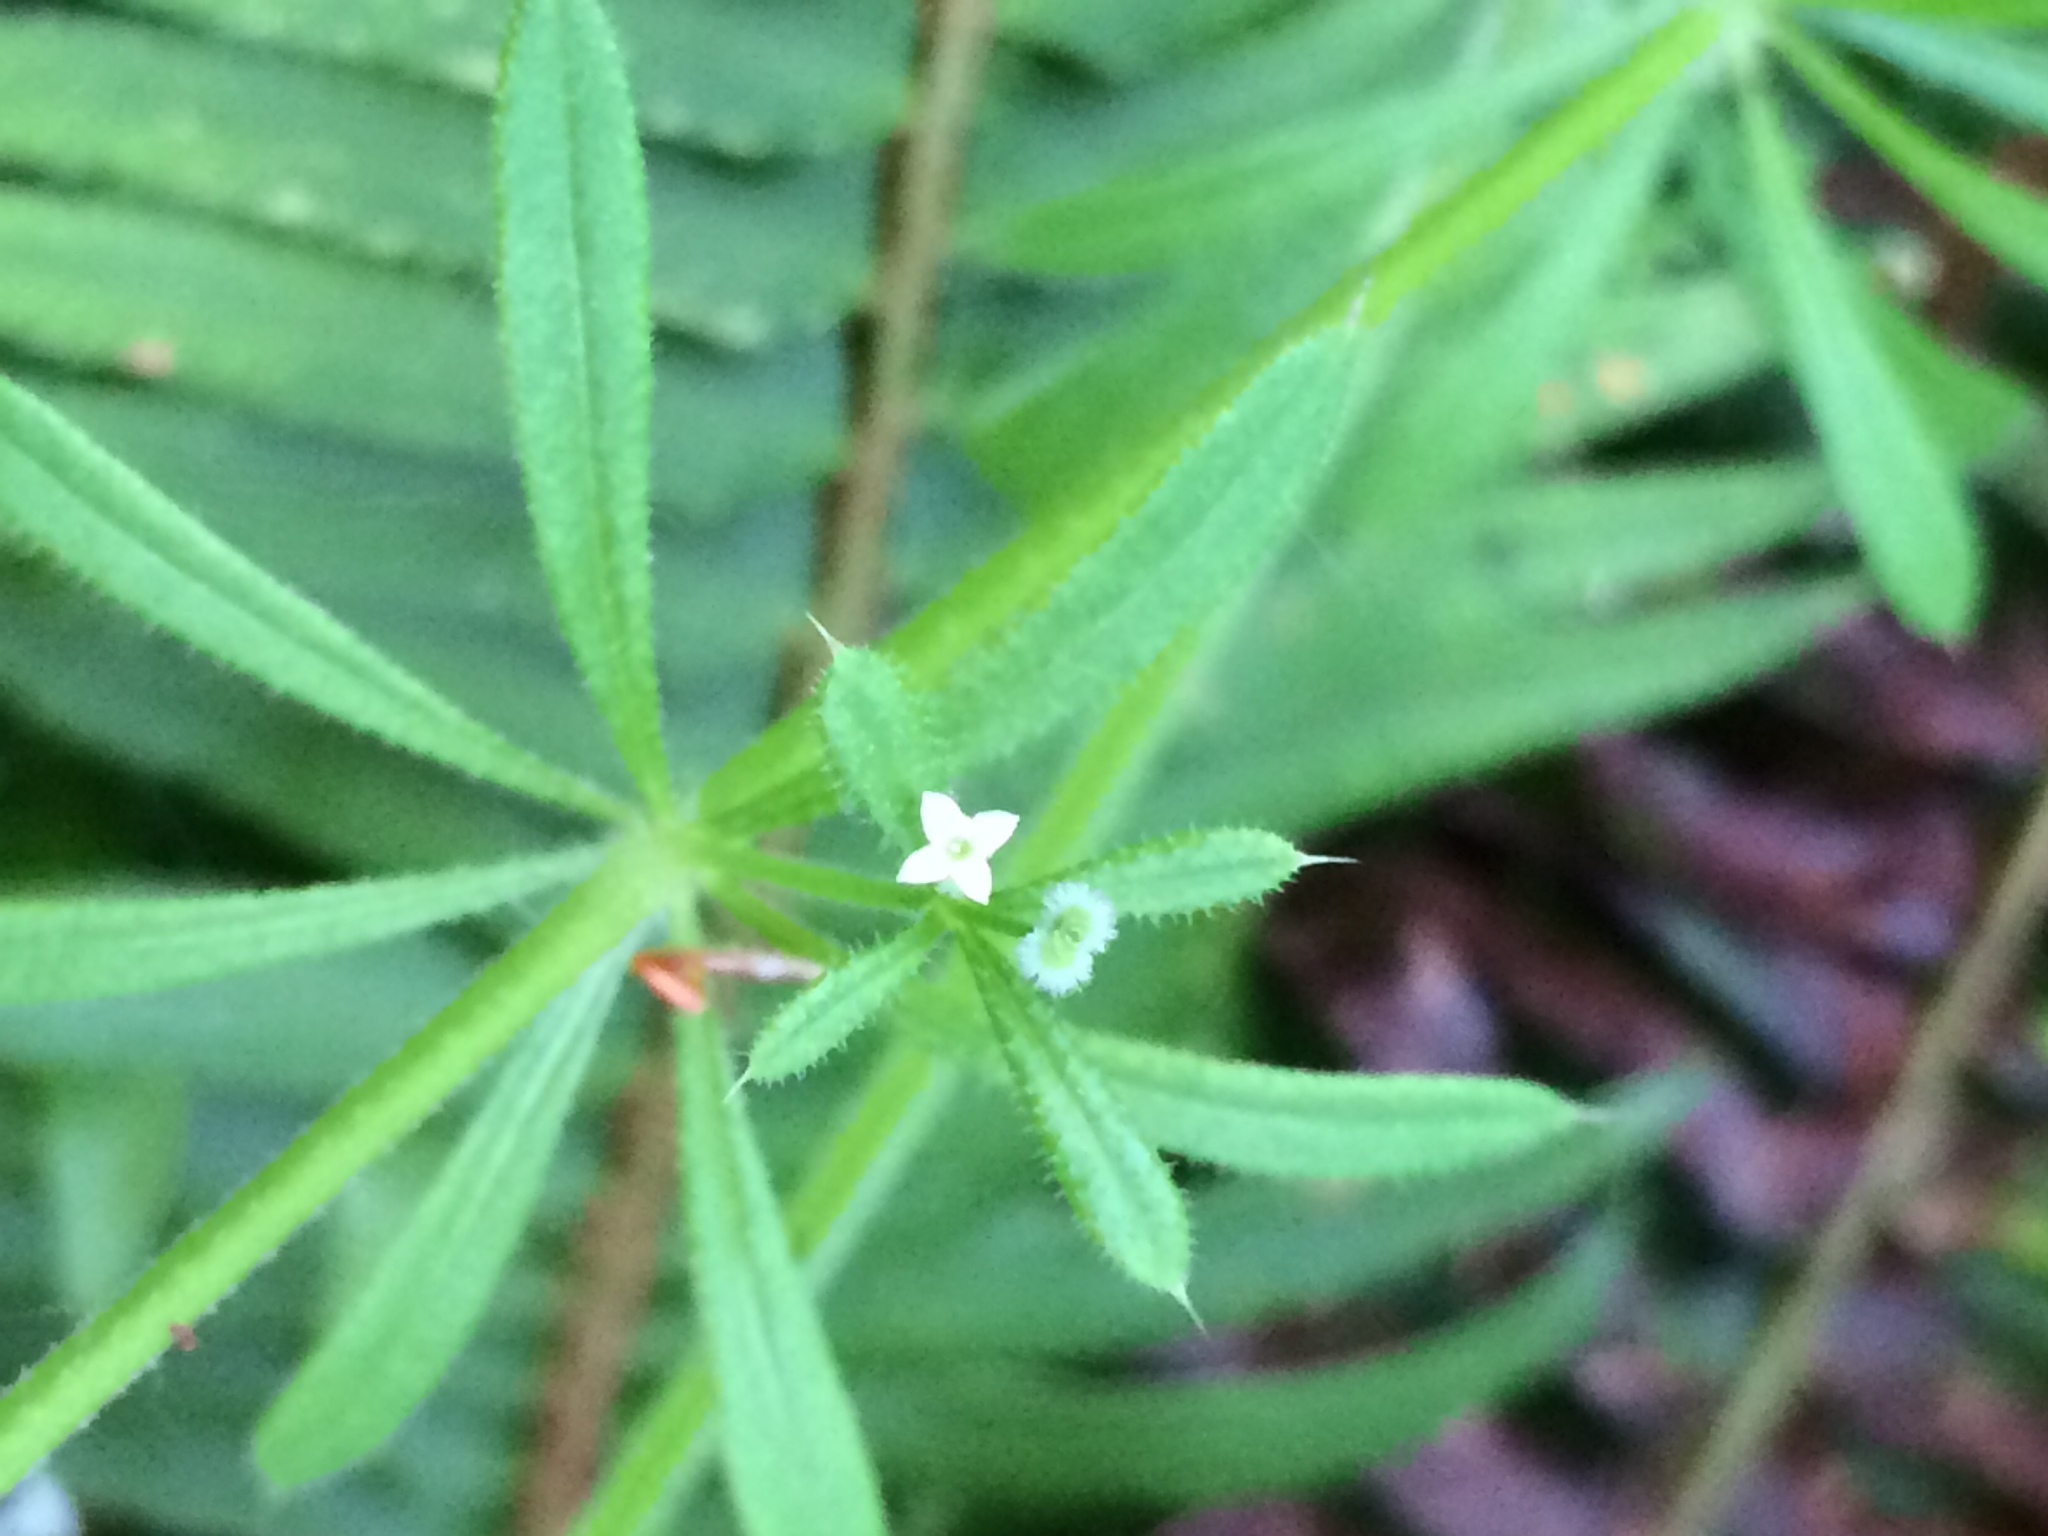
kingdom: Plantae
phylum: Tracheophyta
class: Magnoliopsida
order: Gentianales
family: Rubiaceae
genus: Galium
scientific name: Galium aparine
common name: Cleavers
